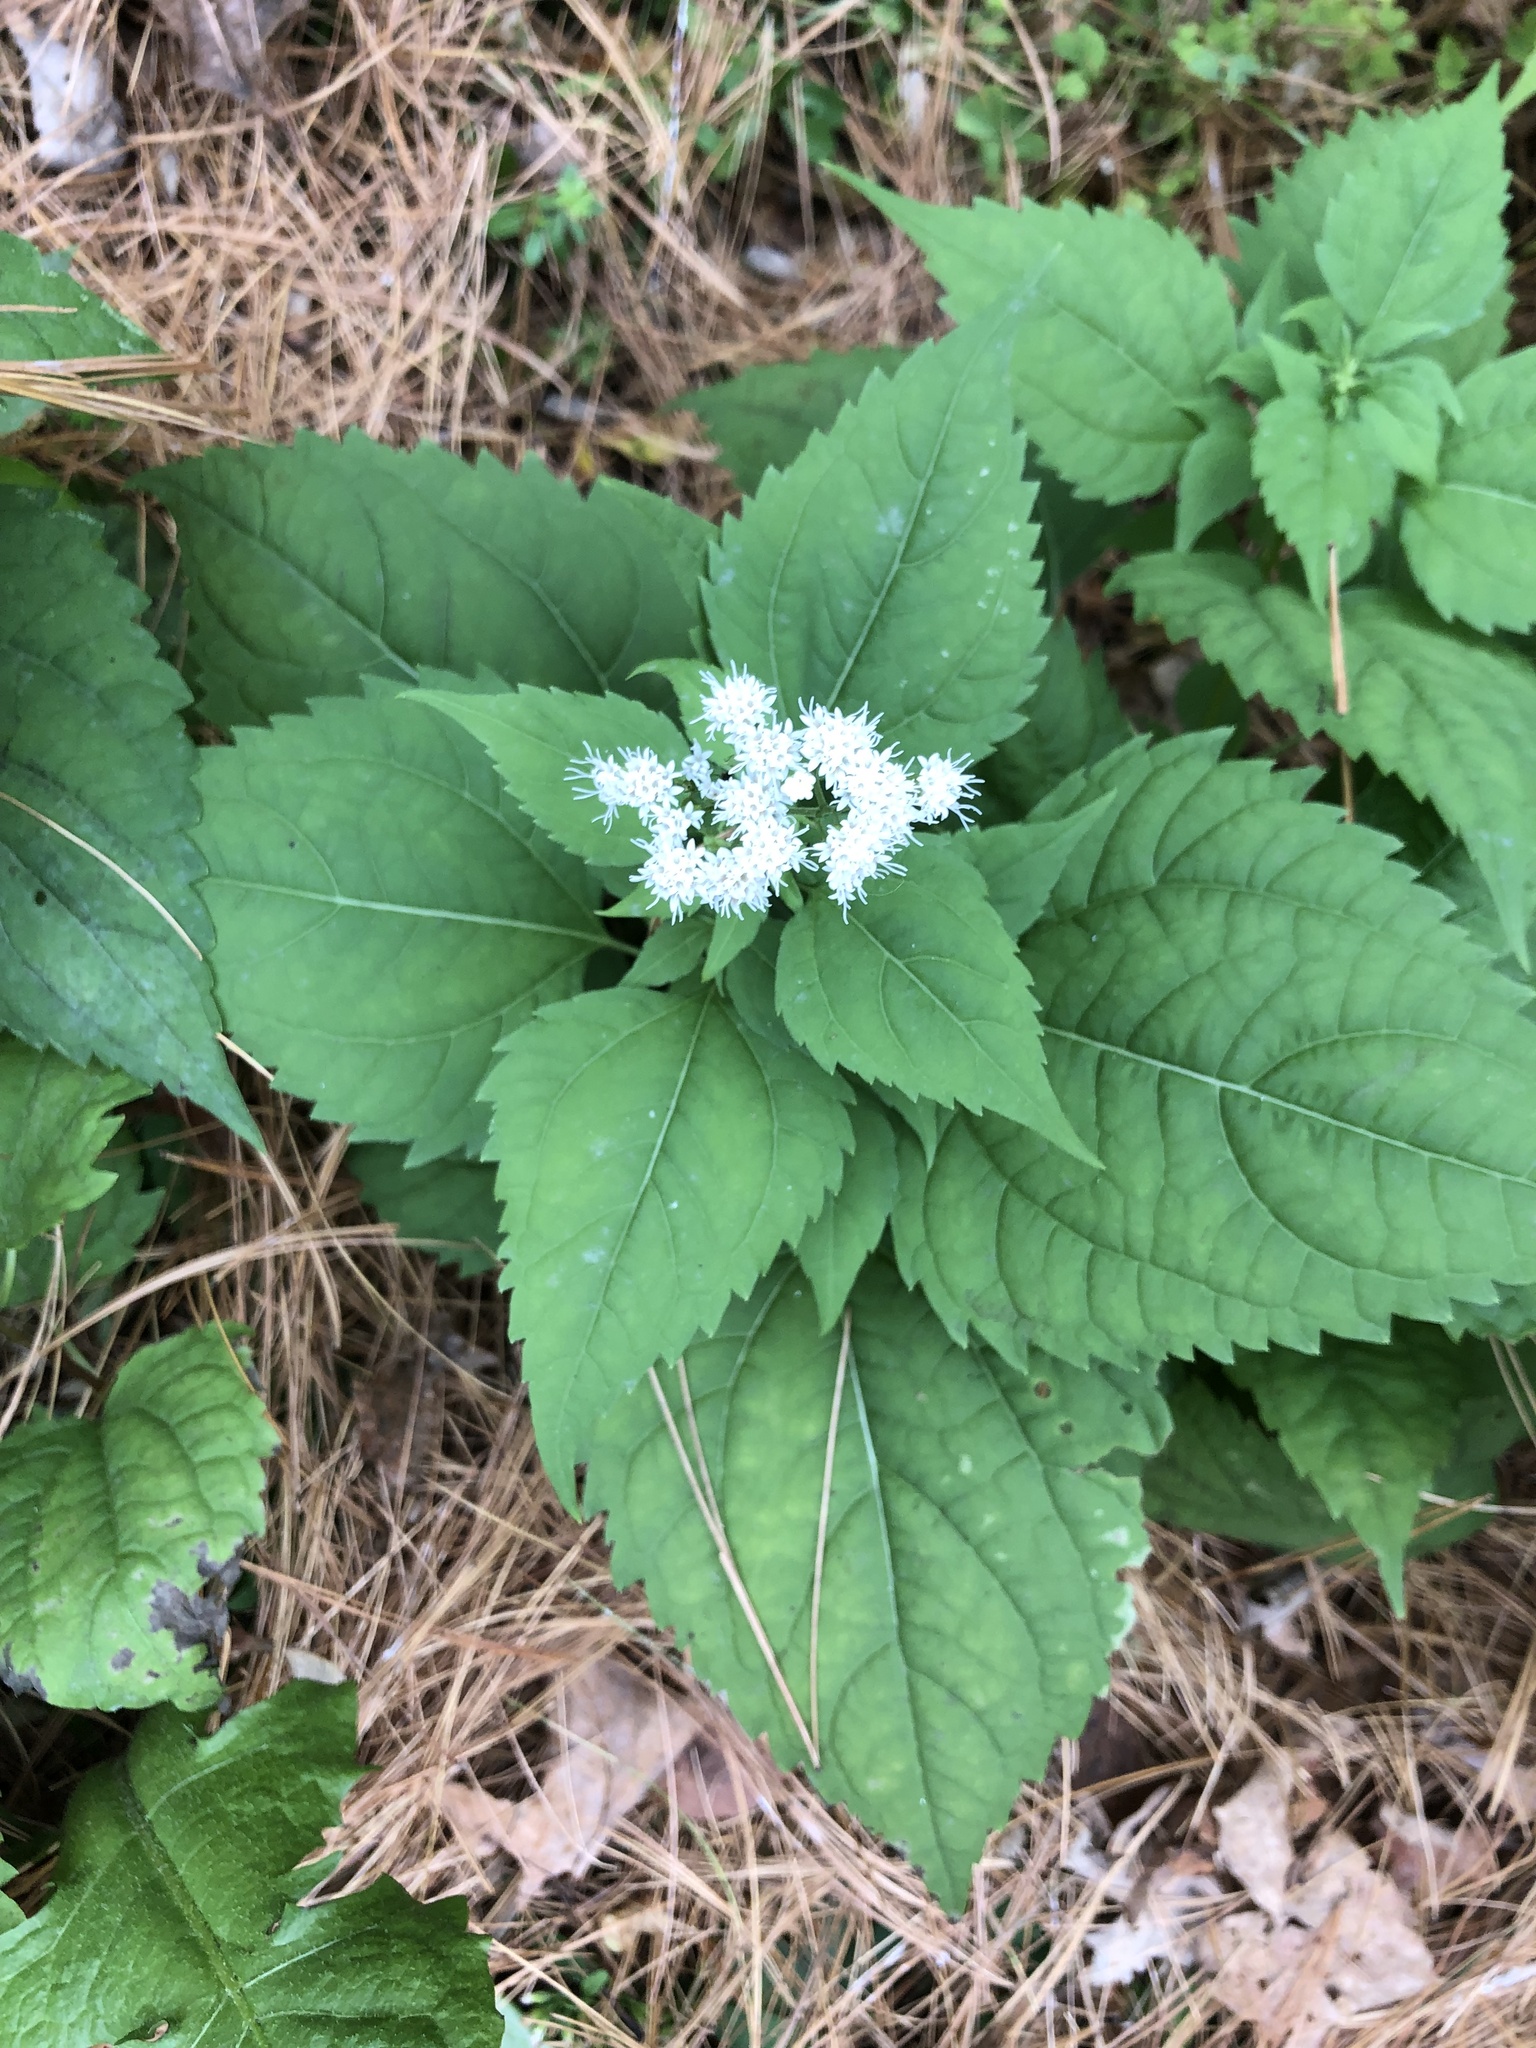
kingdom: Plantae
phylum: Tracheophyta
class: Magnoliopsida
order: Asterales
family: Asteraceae
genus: Ageratina
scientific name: Ageratina altissima
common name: White snakeroot
